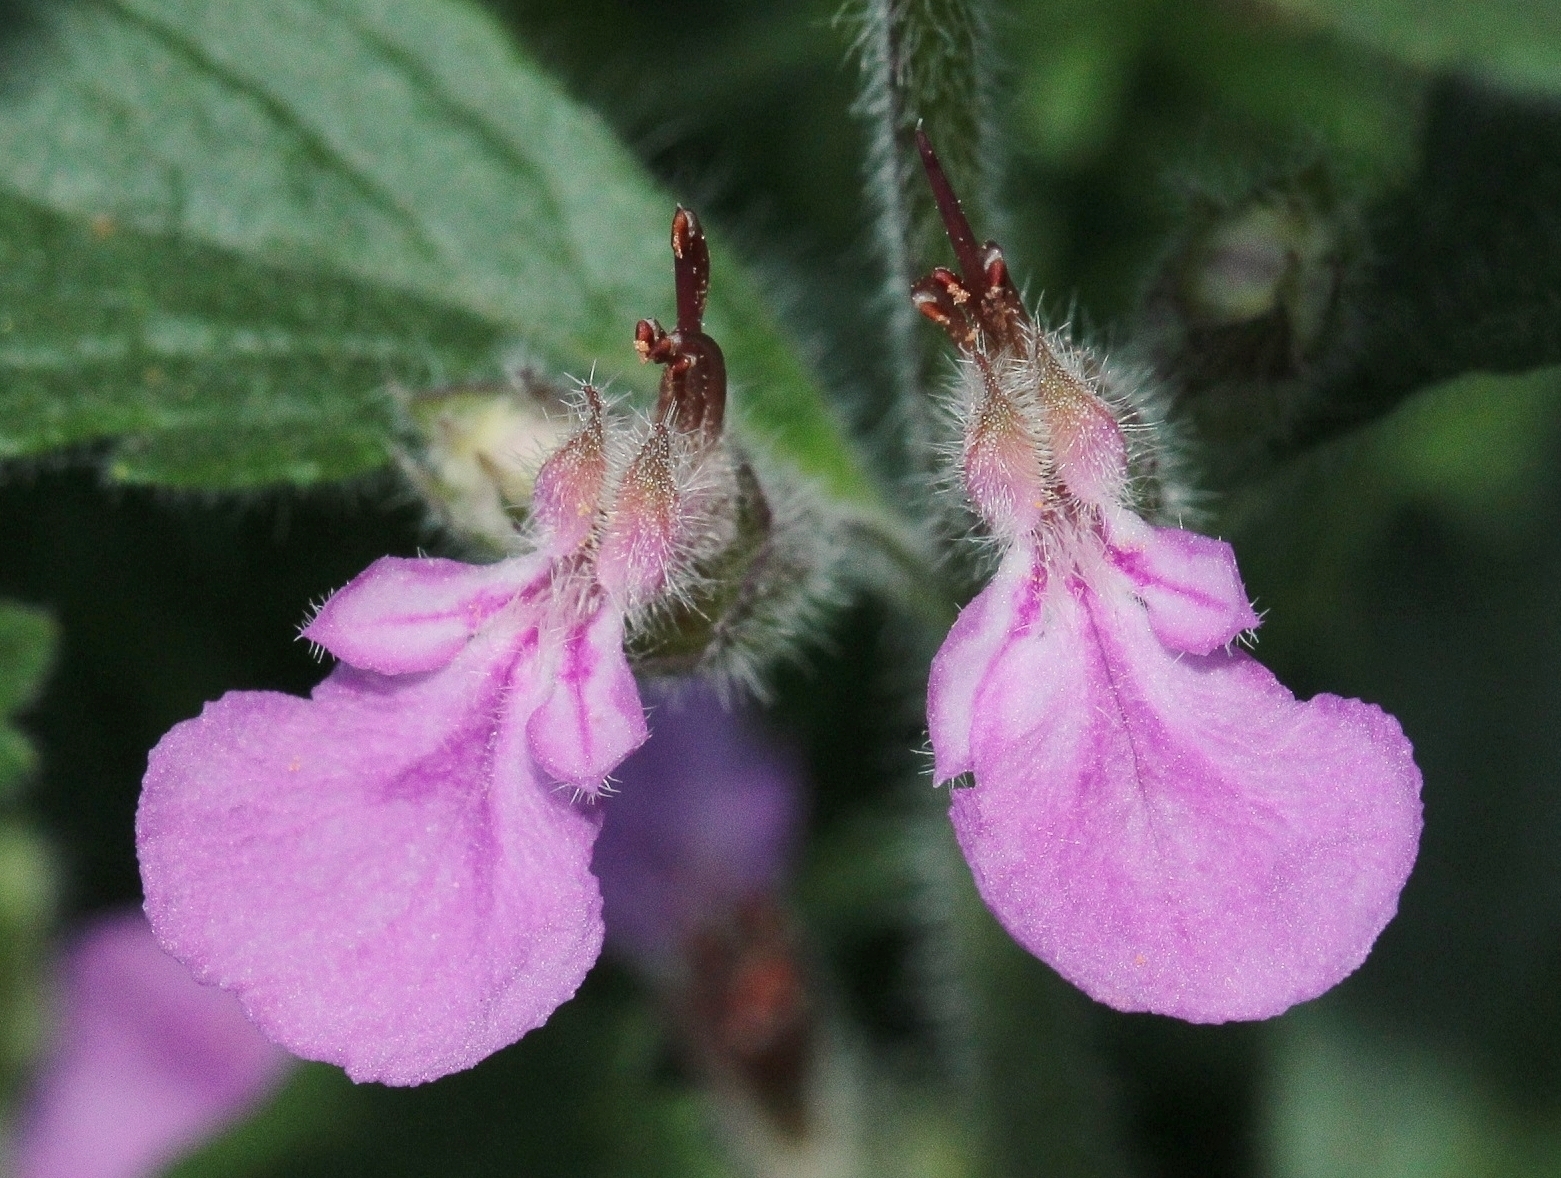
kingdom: Plantae
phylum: Tracheophyta
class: Magnoliopsida
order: Lamiales
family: Lamiaceae
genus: Teucrium
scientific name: Teucrium chamaedrys
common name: Wall germander
